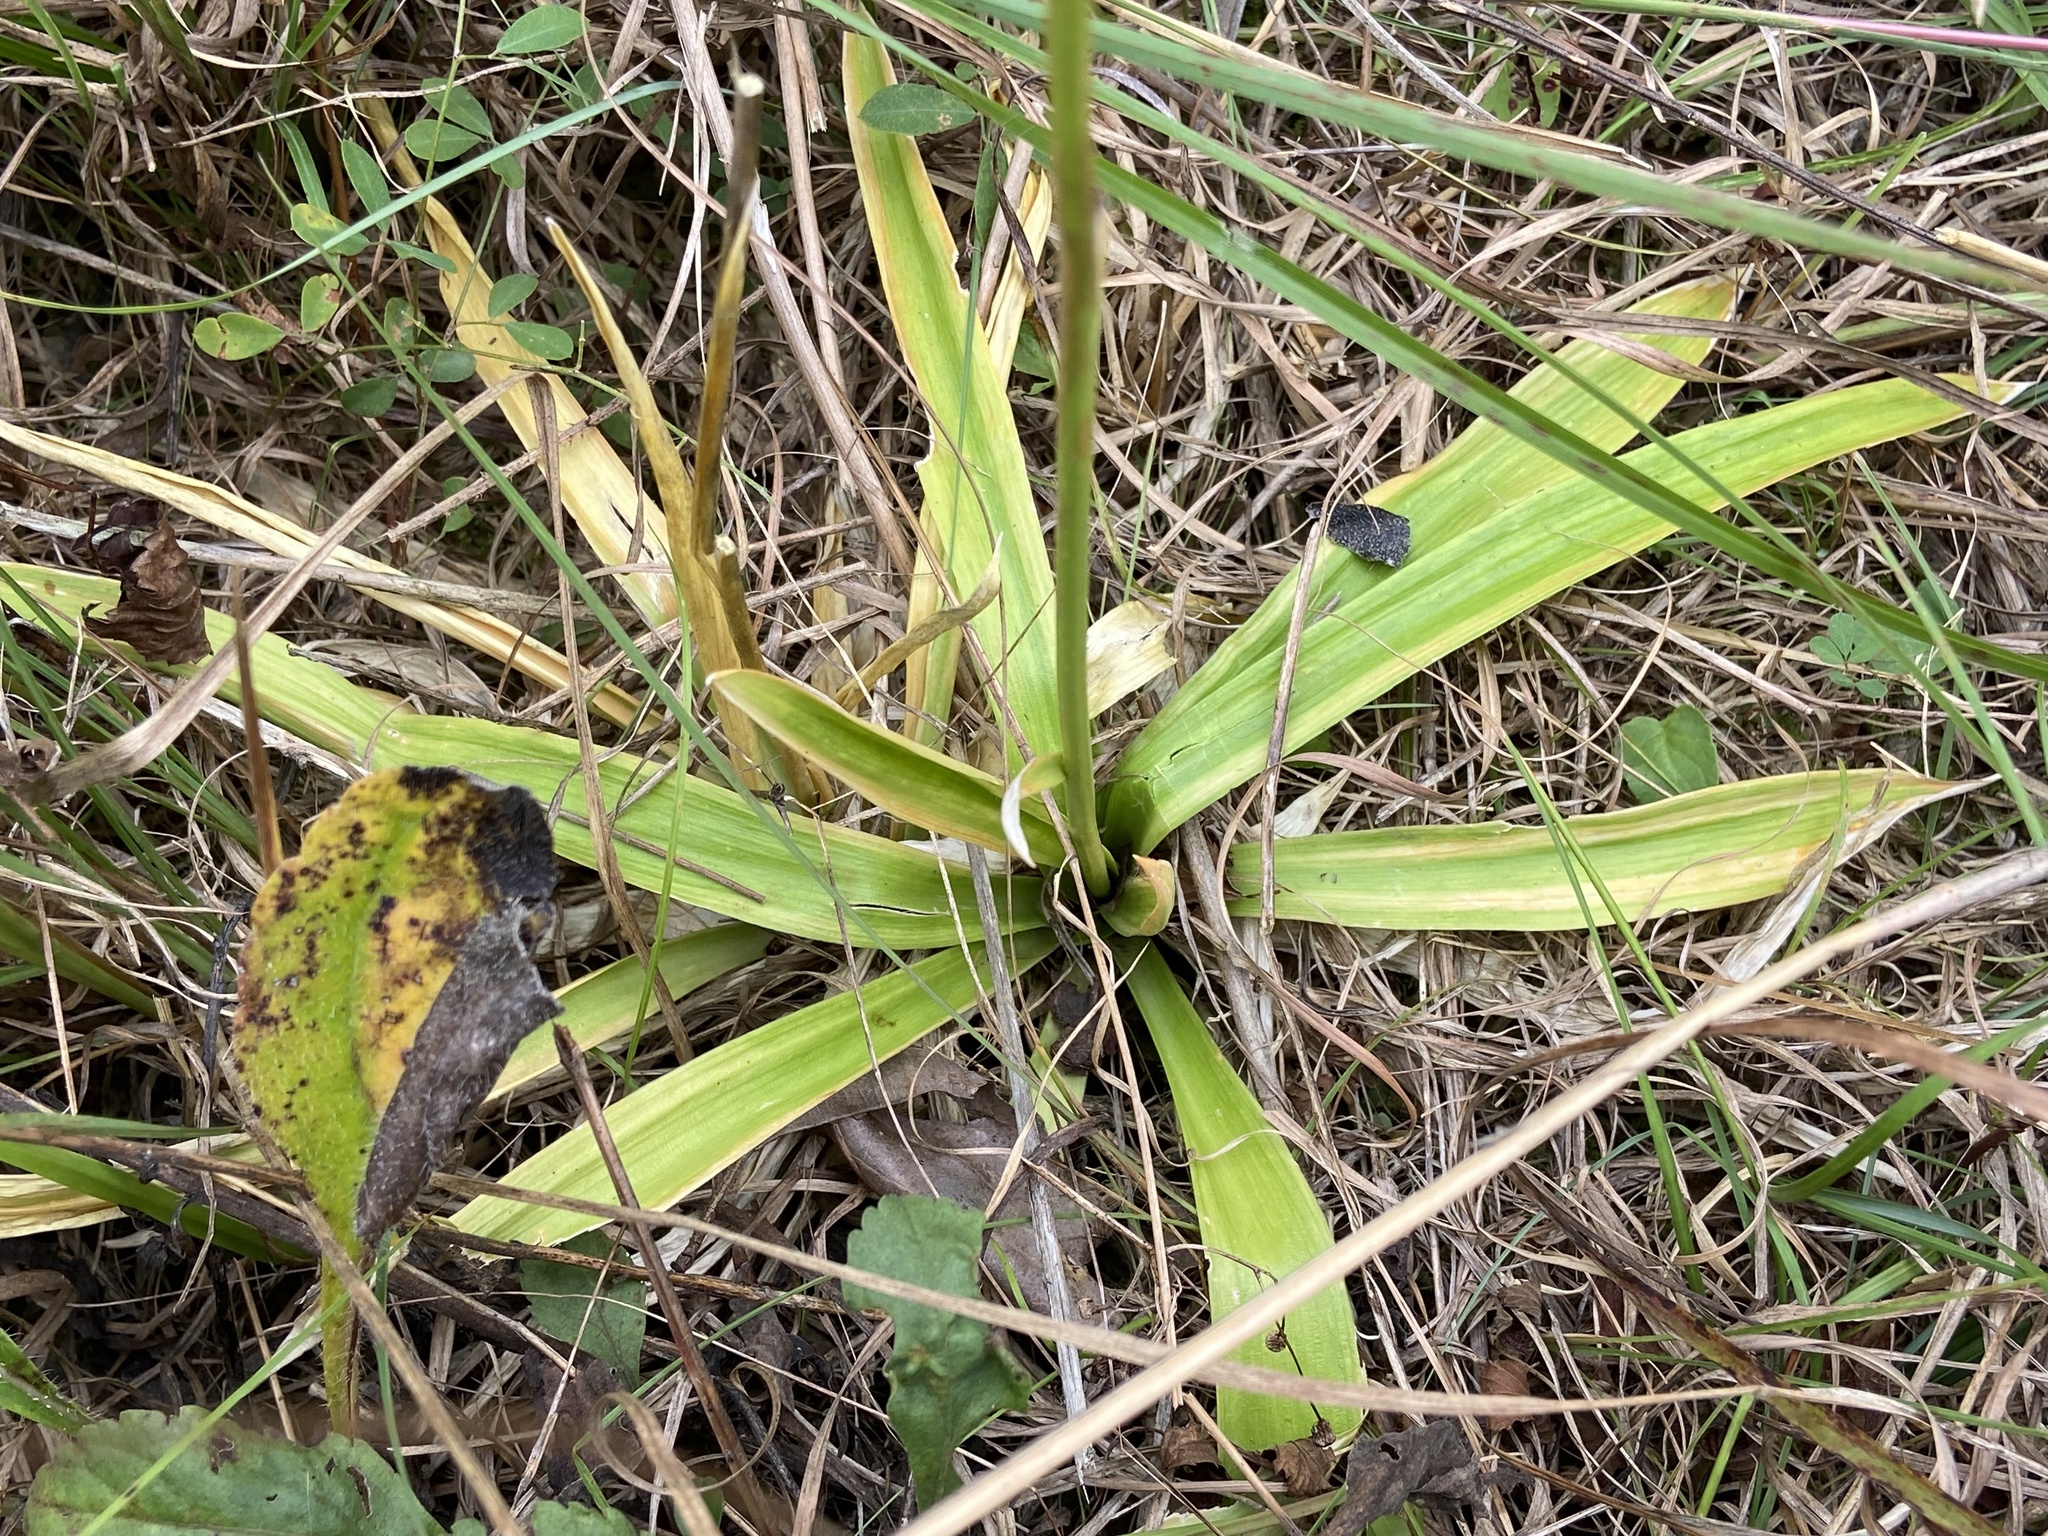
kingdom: Plantae
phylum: Tracheophyta
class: Liliopsida
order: Dioscoreales
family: Nartheciaceae
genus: Aletris
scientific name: Aletris farinosa
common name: Colicroot
